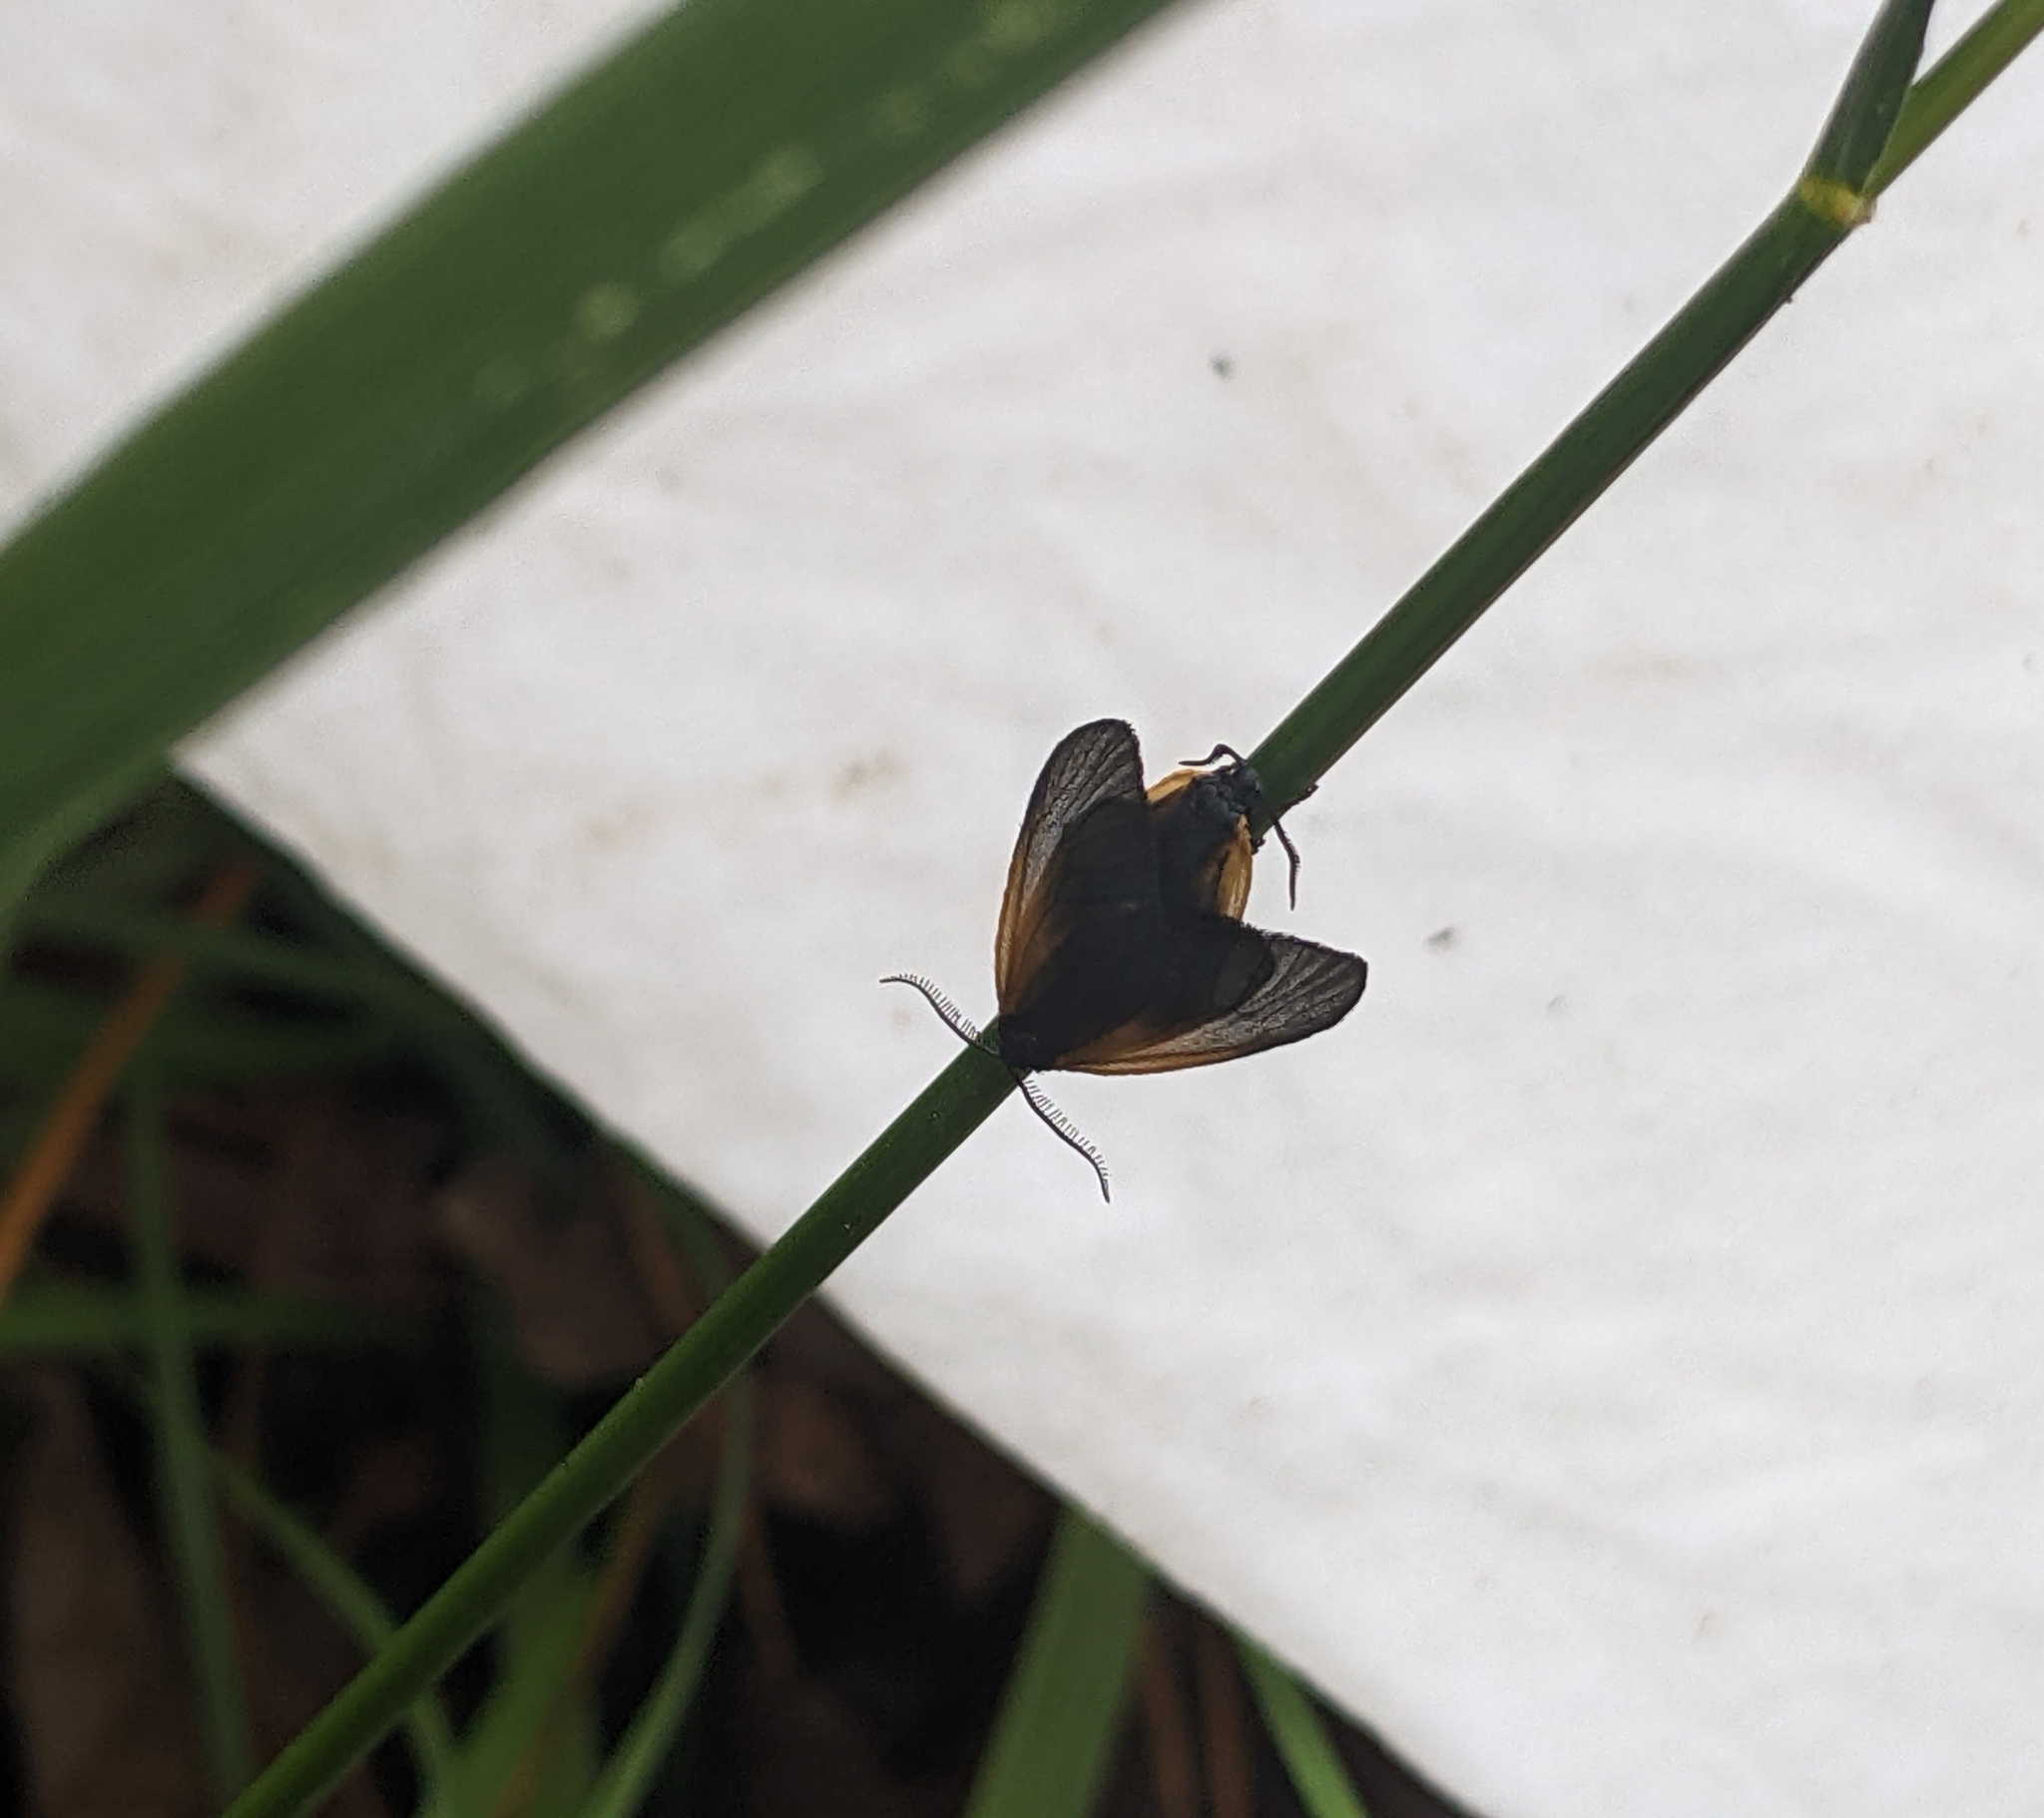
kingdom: Animalia
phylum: Arthropoda
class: Insecta
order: Lepidoptera
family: Zygaenidae
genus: Malthaca
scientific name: Malthaca dimidiata
